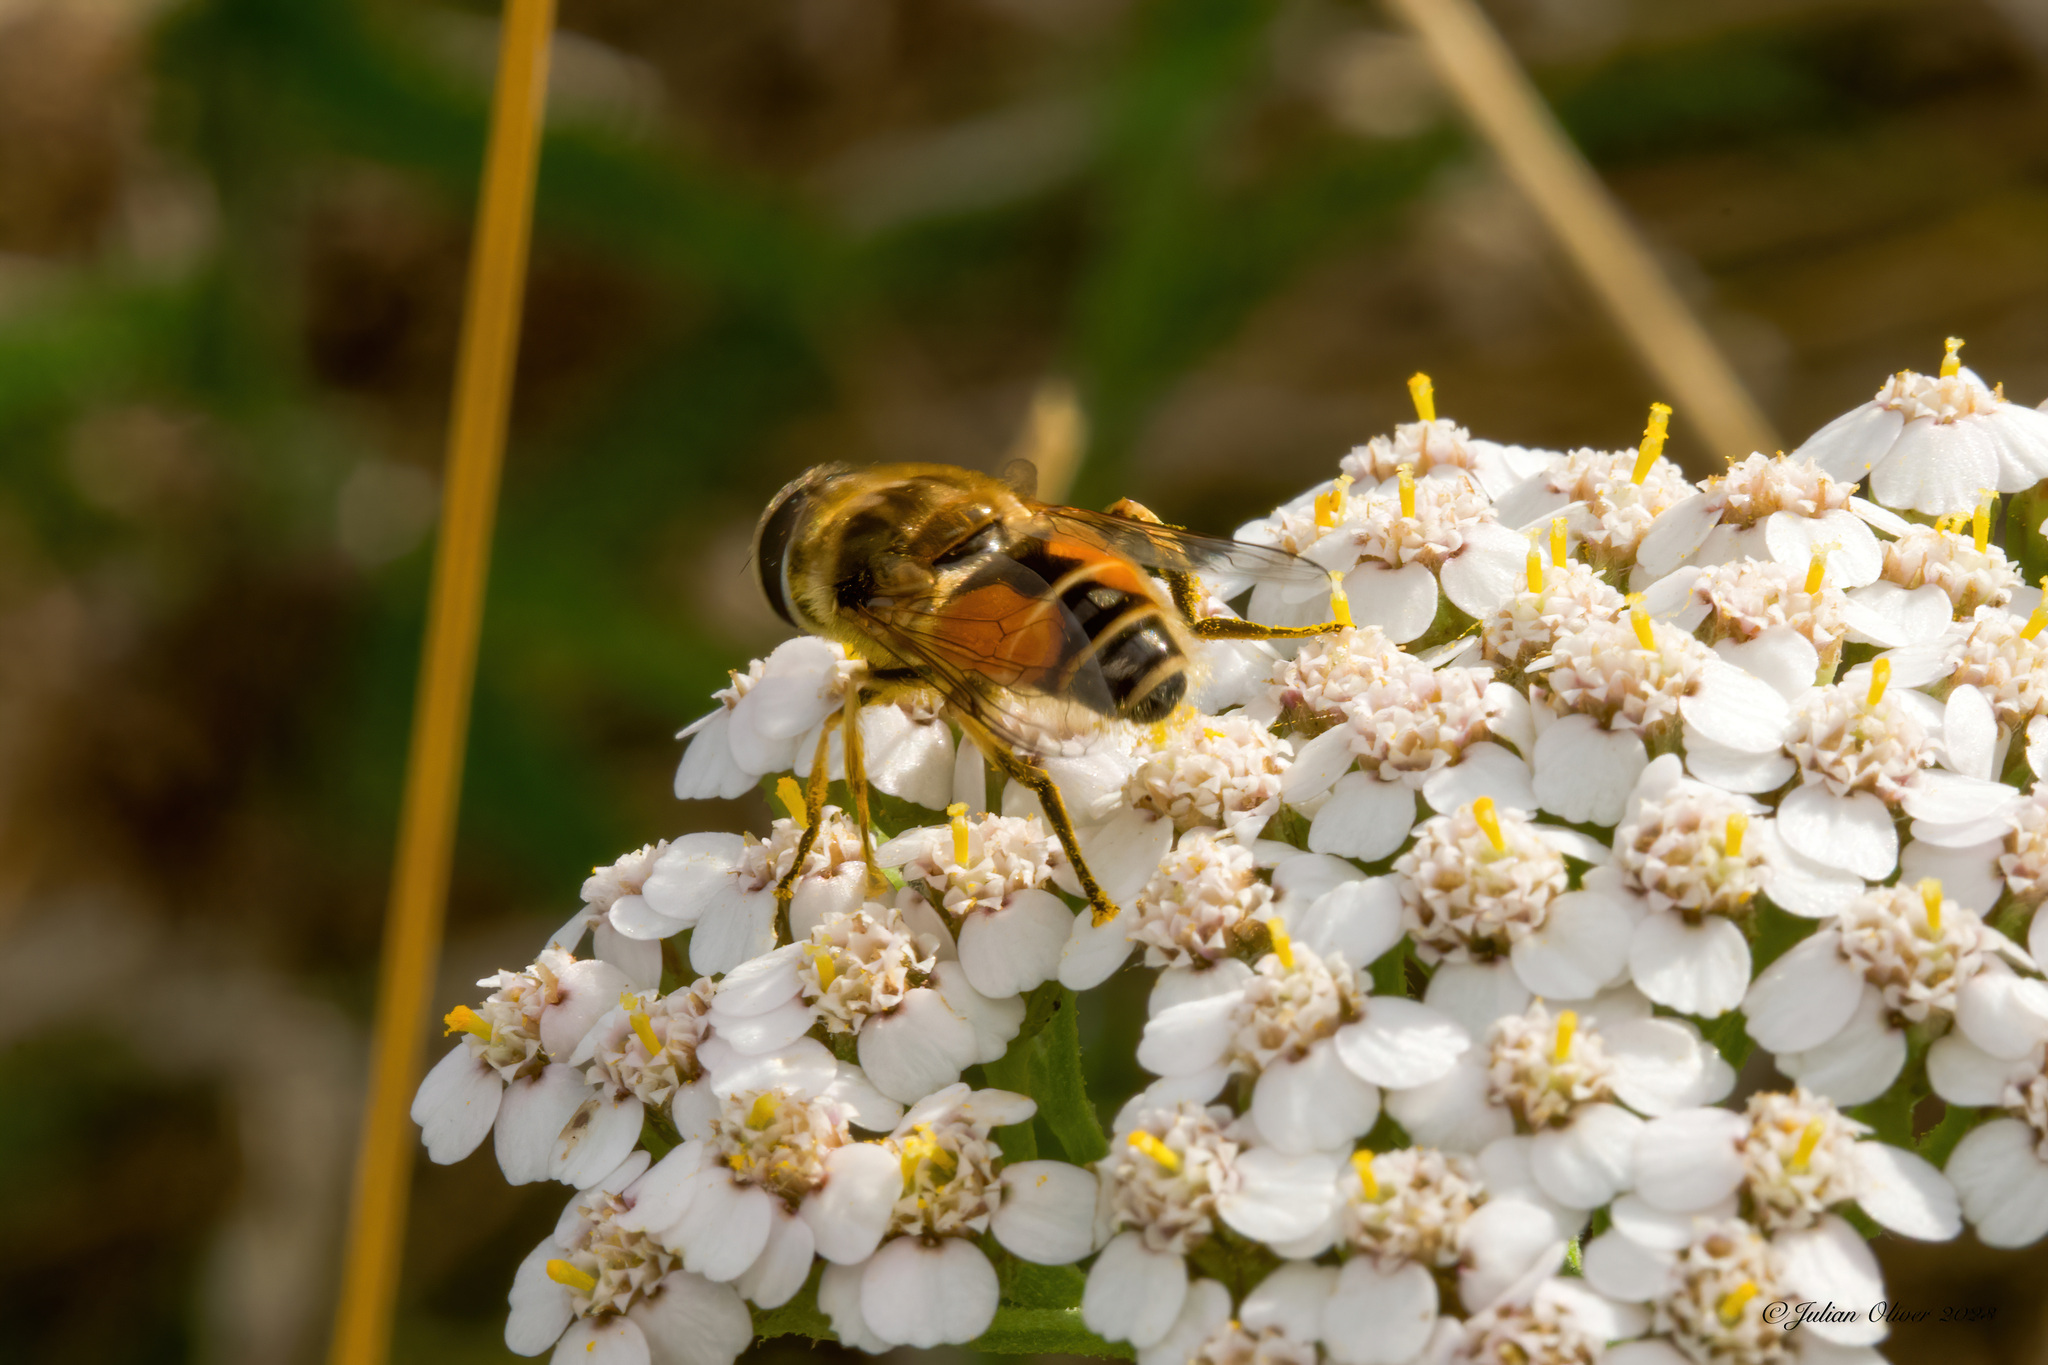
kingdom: Animalia
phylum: Arthropoda
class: Insecta
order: Diptera
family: Syrphidae
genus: Eristalis
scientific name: Eristalis arbustorum
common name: Hover fly
